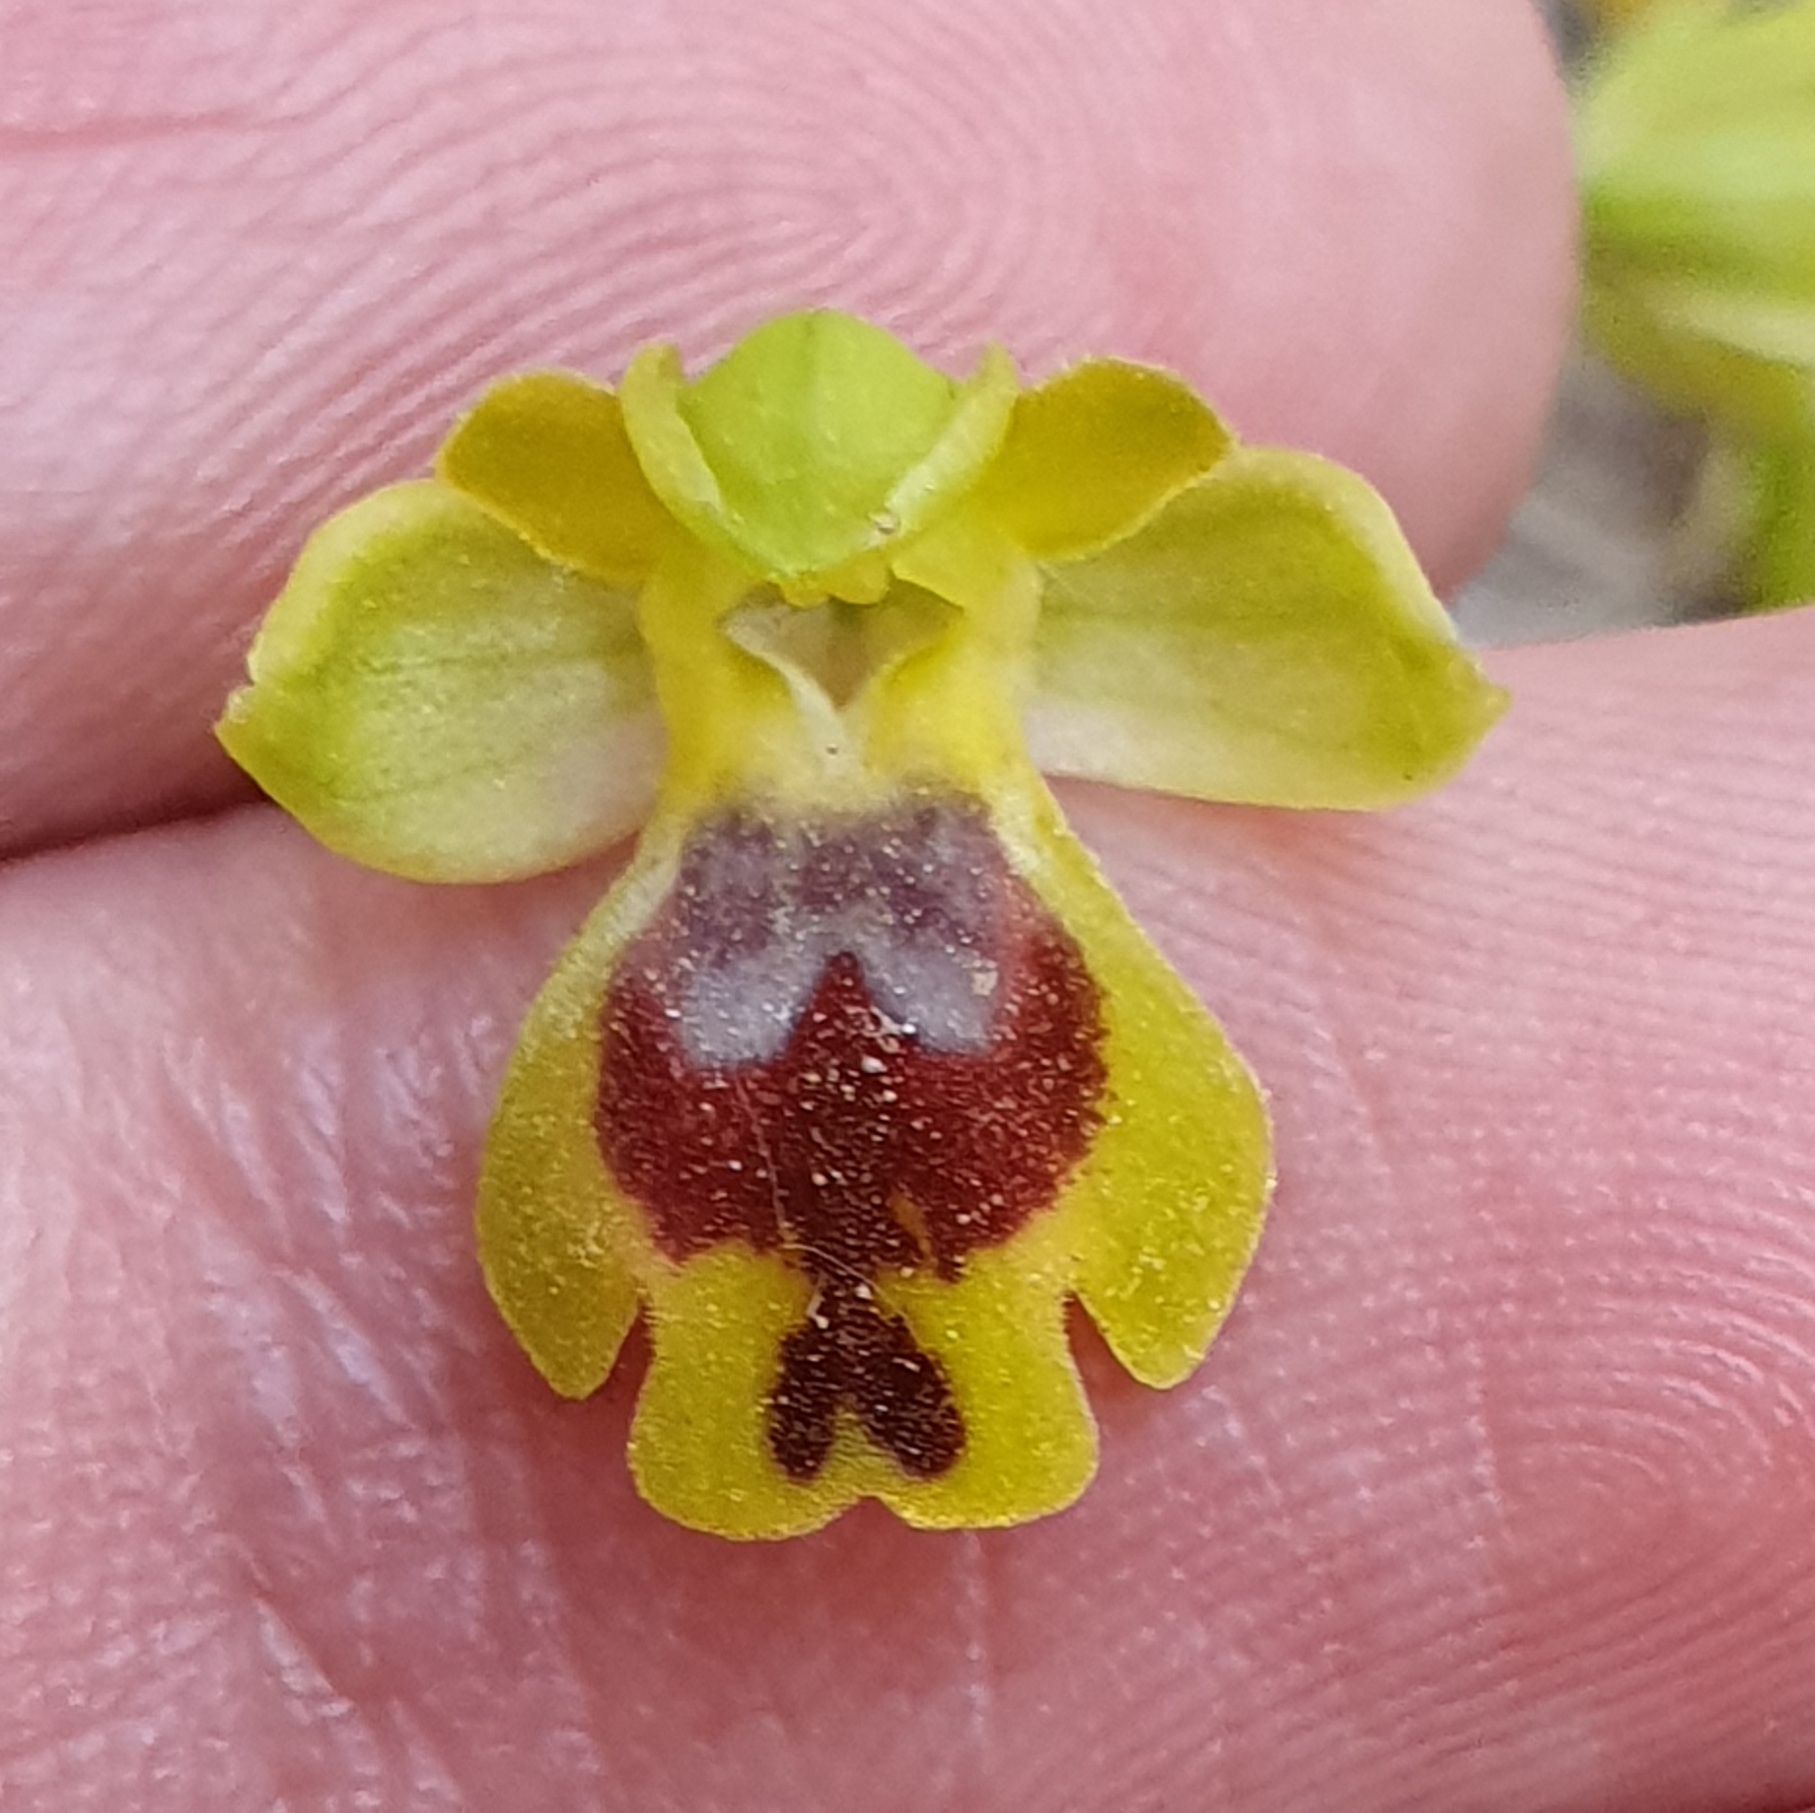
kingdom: Plantae
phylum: Tracheophyta
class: Liliopsida
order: Asparagales
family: Orchidaceae
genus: Ophrys
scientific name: Ophrys battandieri
